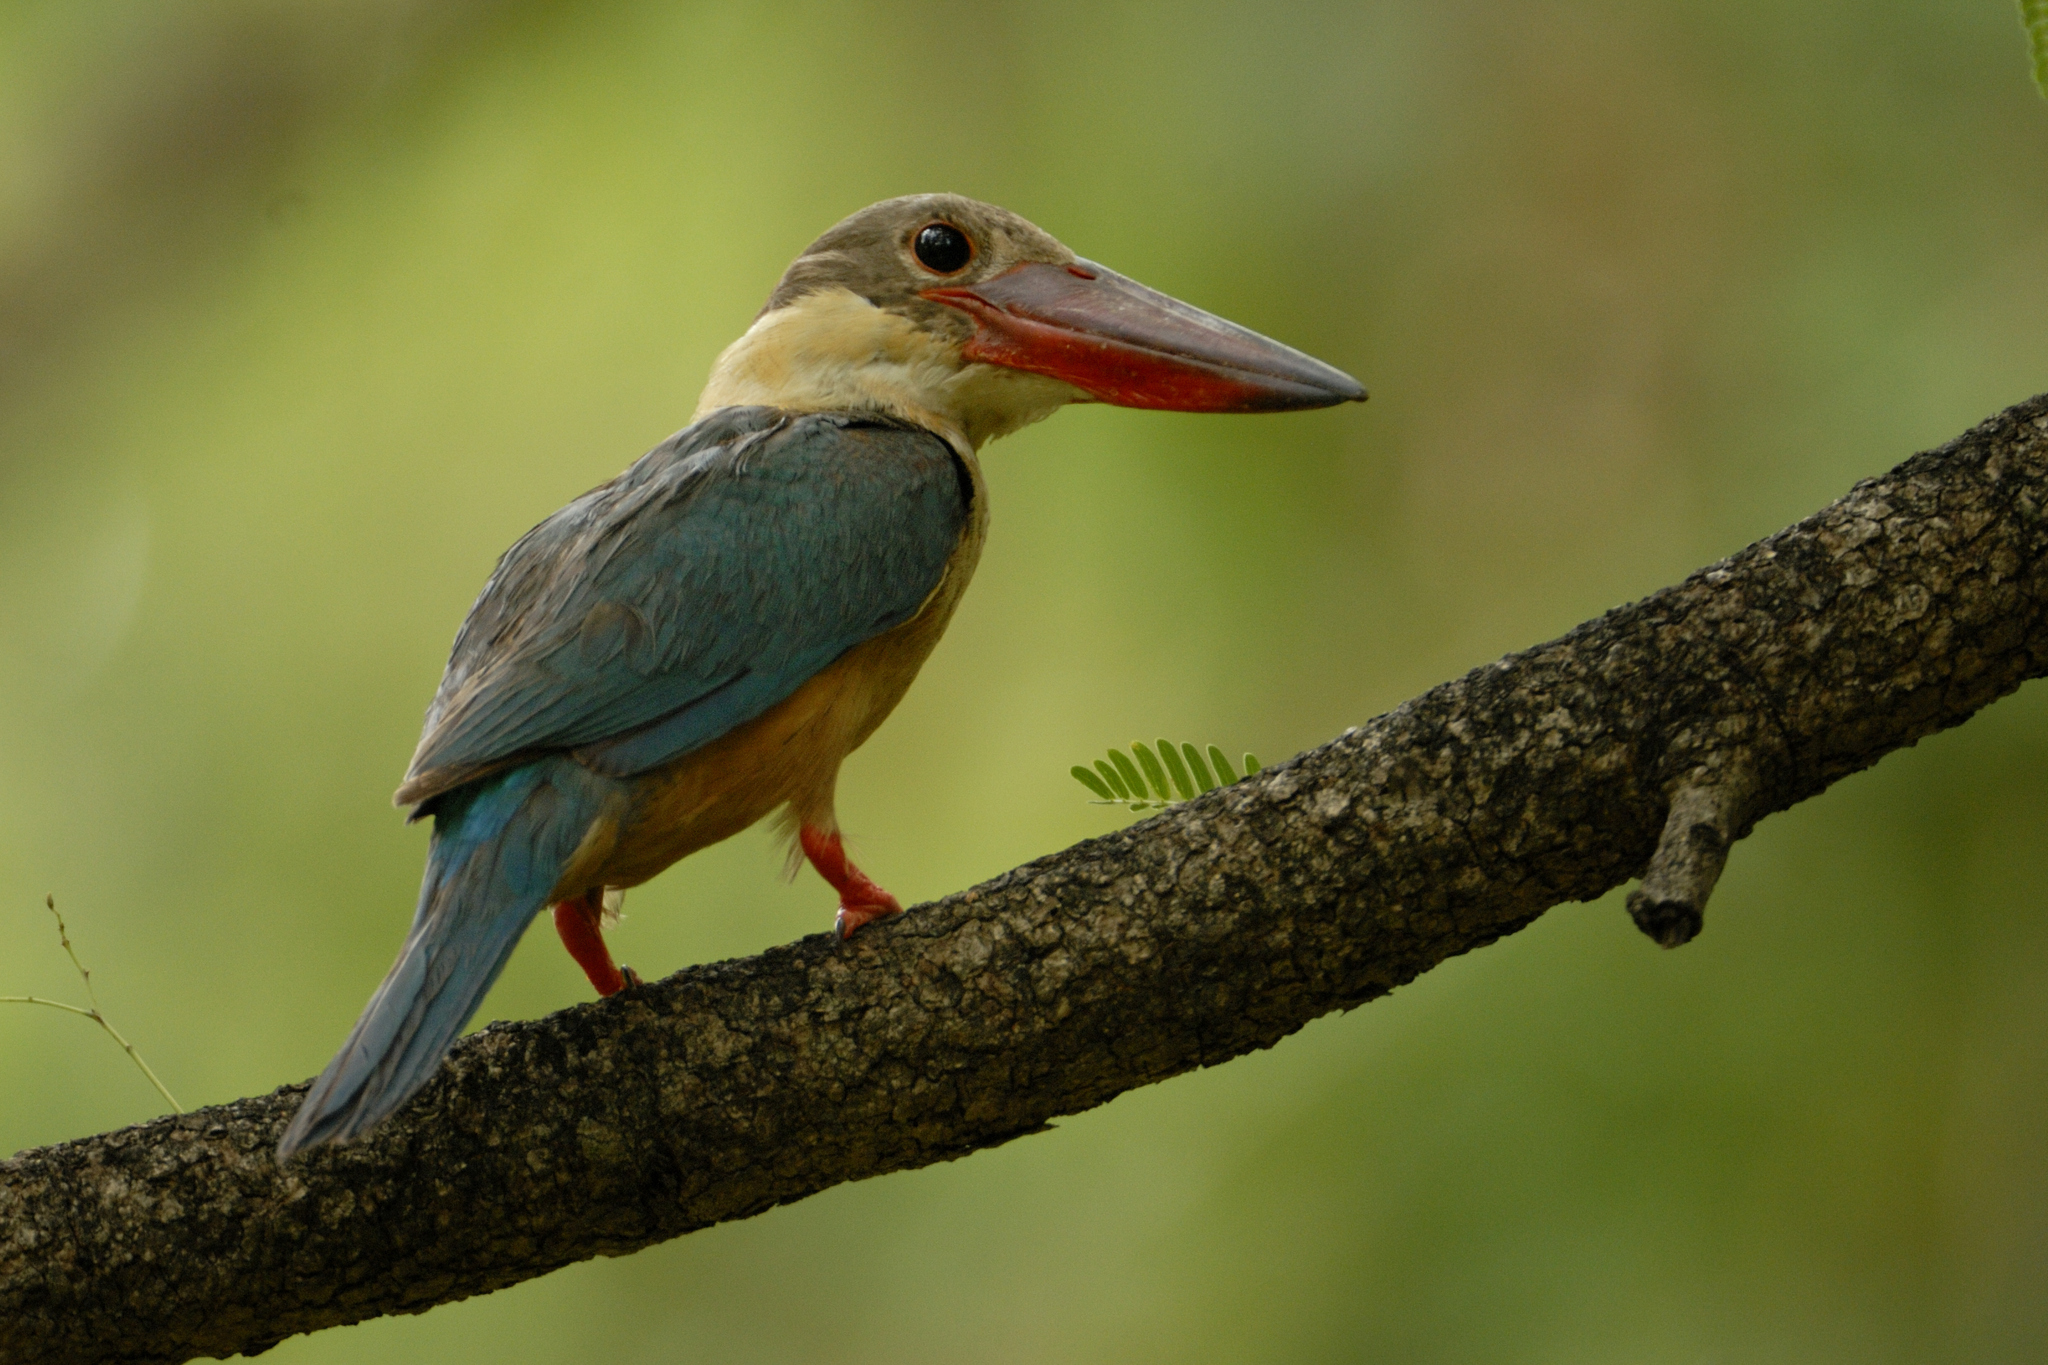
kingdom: Animalia
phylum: Chordata
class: Aves
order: Coraciiformes
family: Alcedinidae
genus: Pelargopsis
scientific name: Pelargopsis capensis
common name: Stork-billed kingfisher
